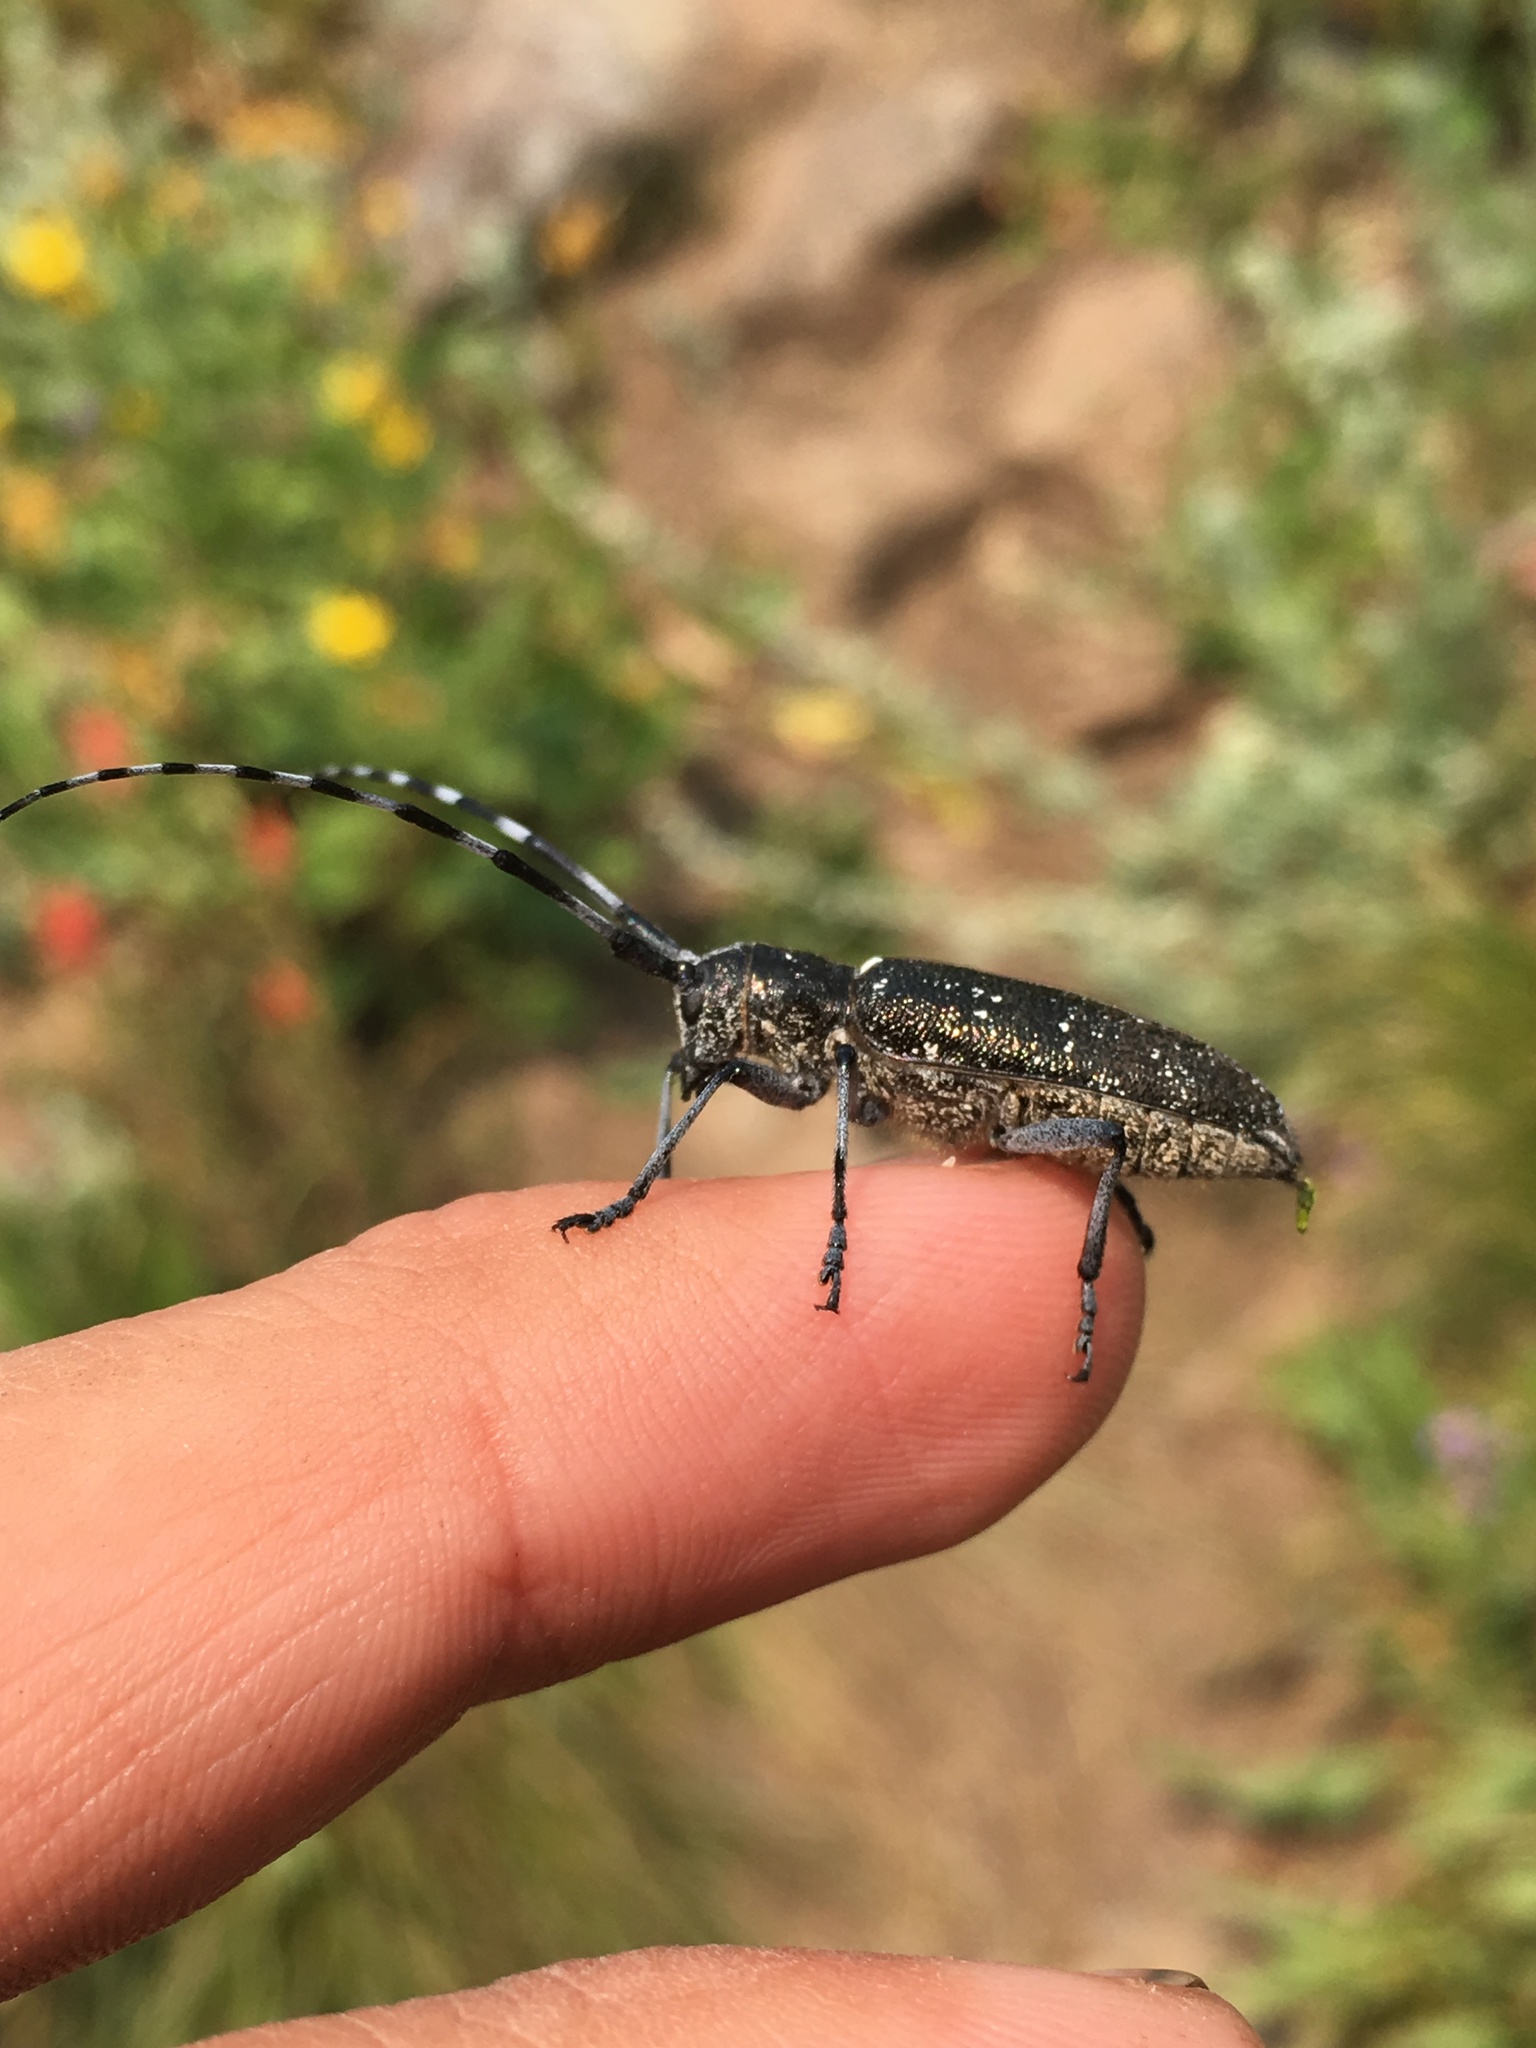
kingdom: Animalia
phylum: Arthropoda
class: Insecta
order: Coleoptera
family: Cerambycidae
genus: Monochamus
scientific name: Monochamus scutellatus
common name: White-spotted sawyer beetle
